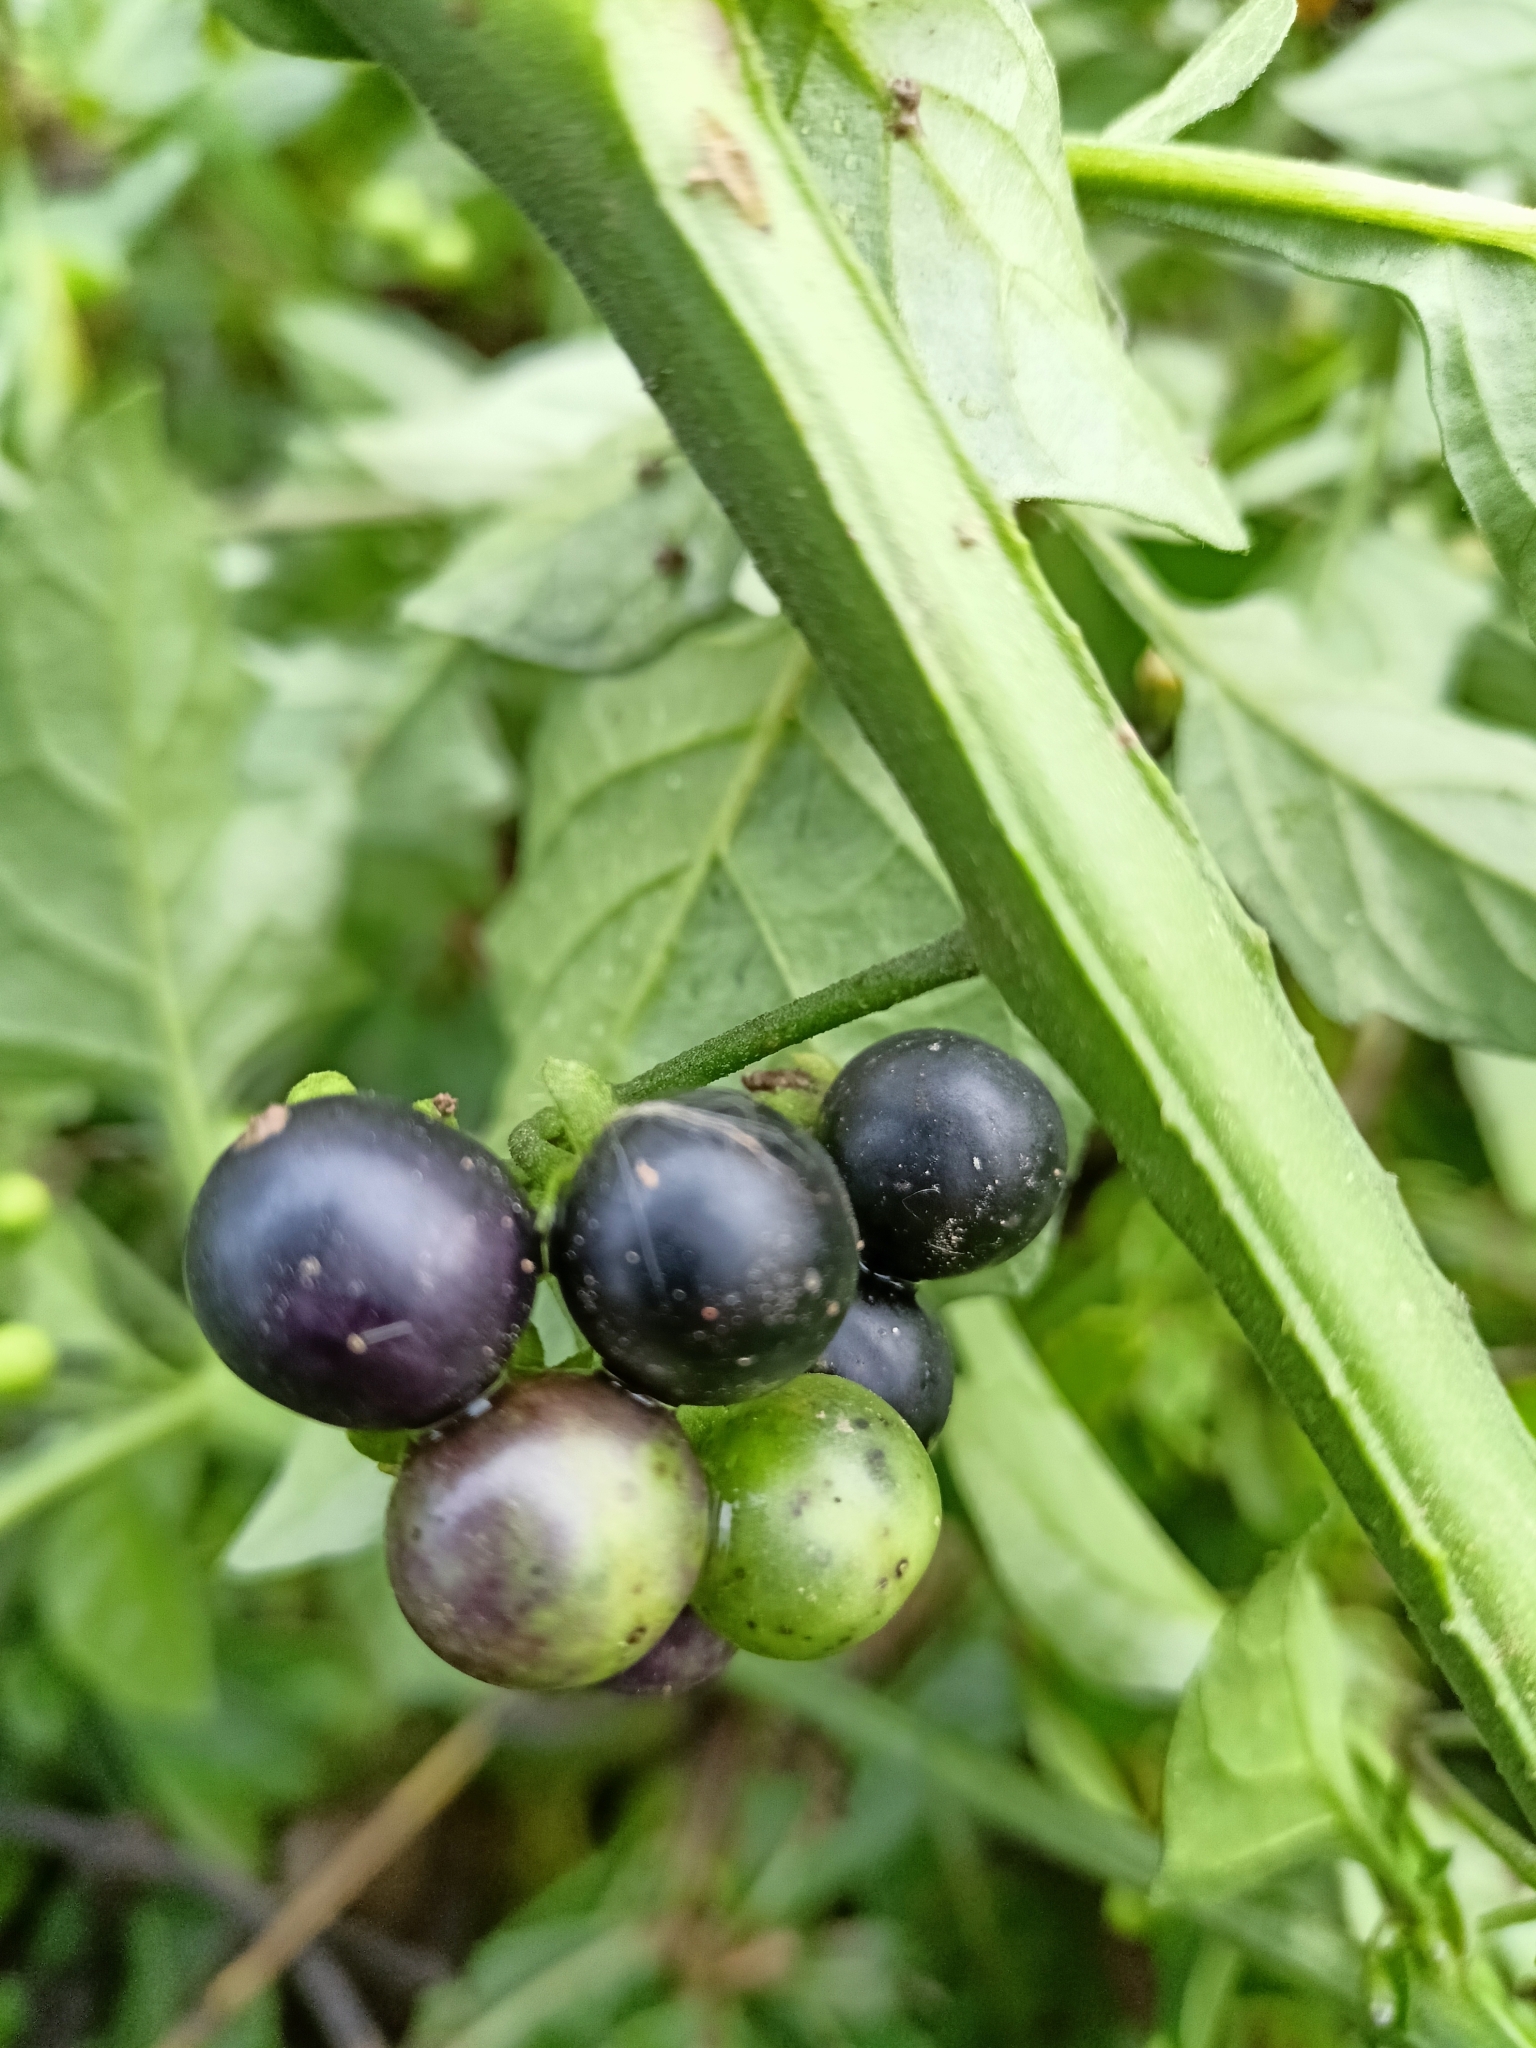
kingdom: Plantae
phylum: Tracheophyta
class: Magnoliopsida
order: Solanales
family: Solanaceae
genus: Solanum
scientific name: Solanum nigrum
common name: Black nightshade
